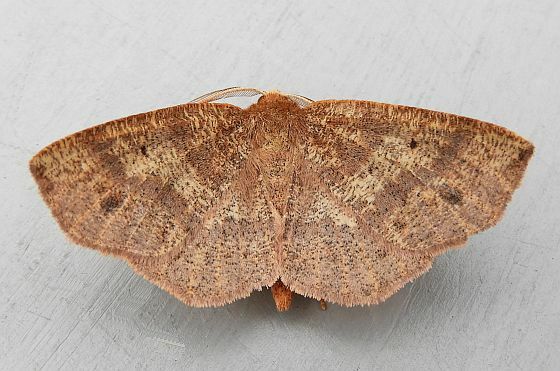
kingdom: Animalia
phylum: Arthropoda
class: Insecta
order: Lepidoptera
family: Geometridae
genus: Metarranthis
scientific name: Metarranthis angularia
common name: Angled metarranthis moth
